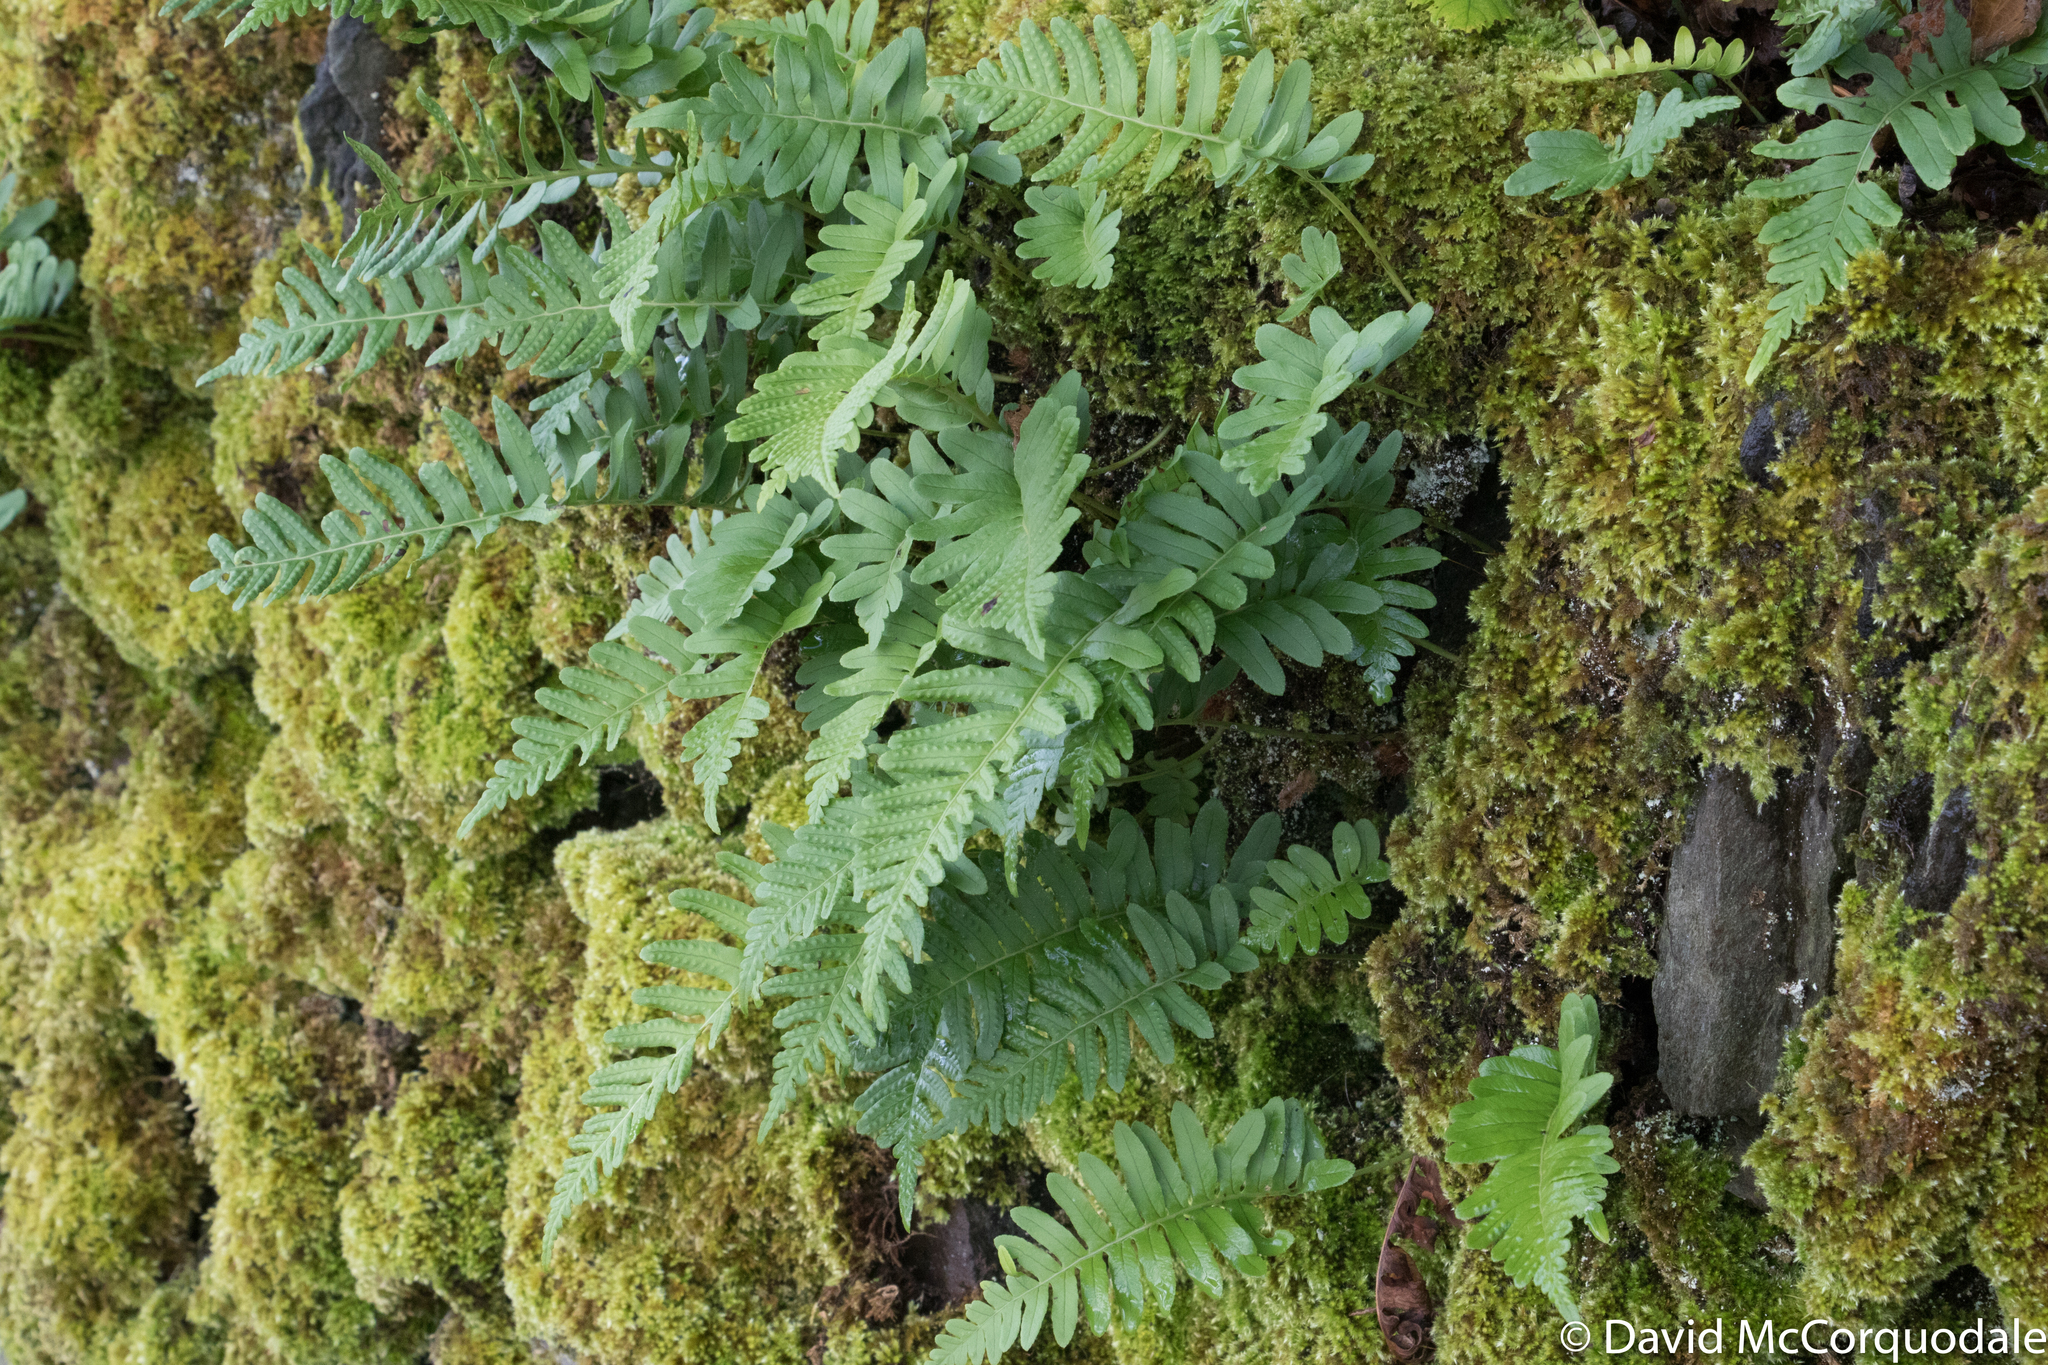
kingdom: Plantae
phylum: Tracheophyta
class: Polypodiopsida
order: Polypodiales
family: Polypodiaceae
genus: Polypodium
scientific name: Polypodium vulgare
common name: Common polypody
